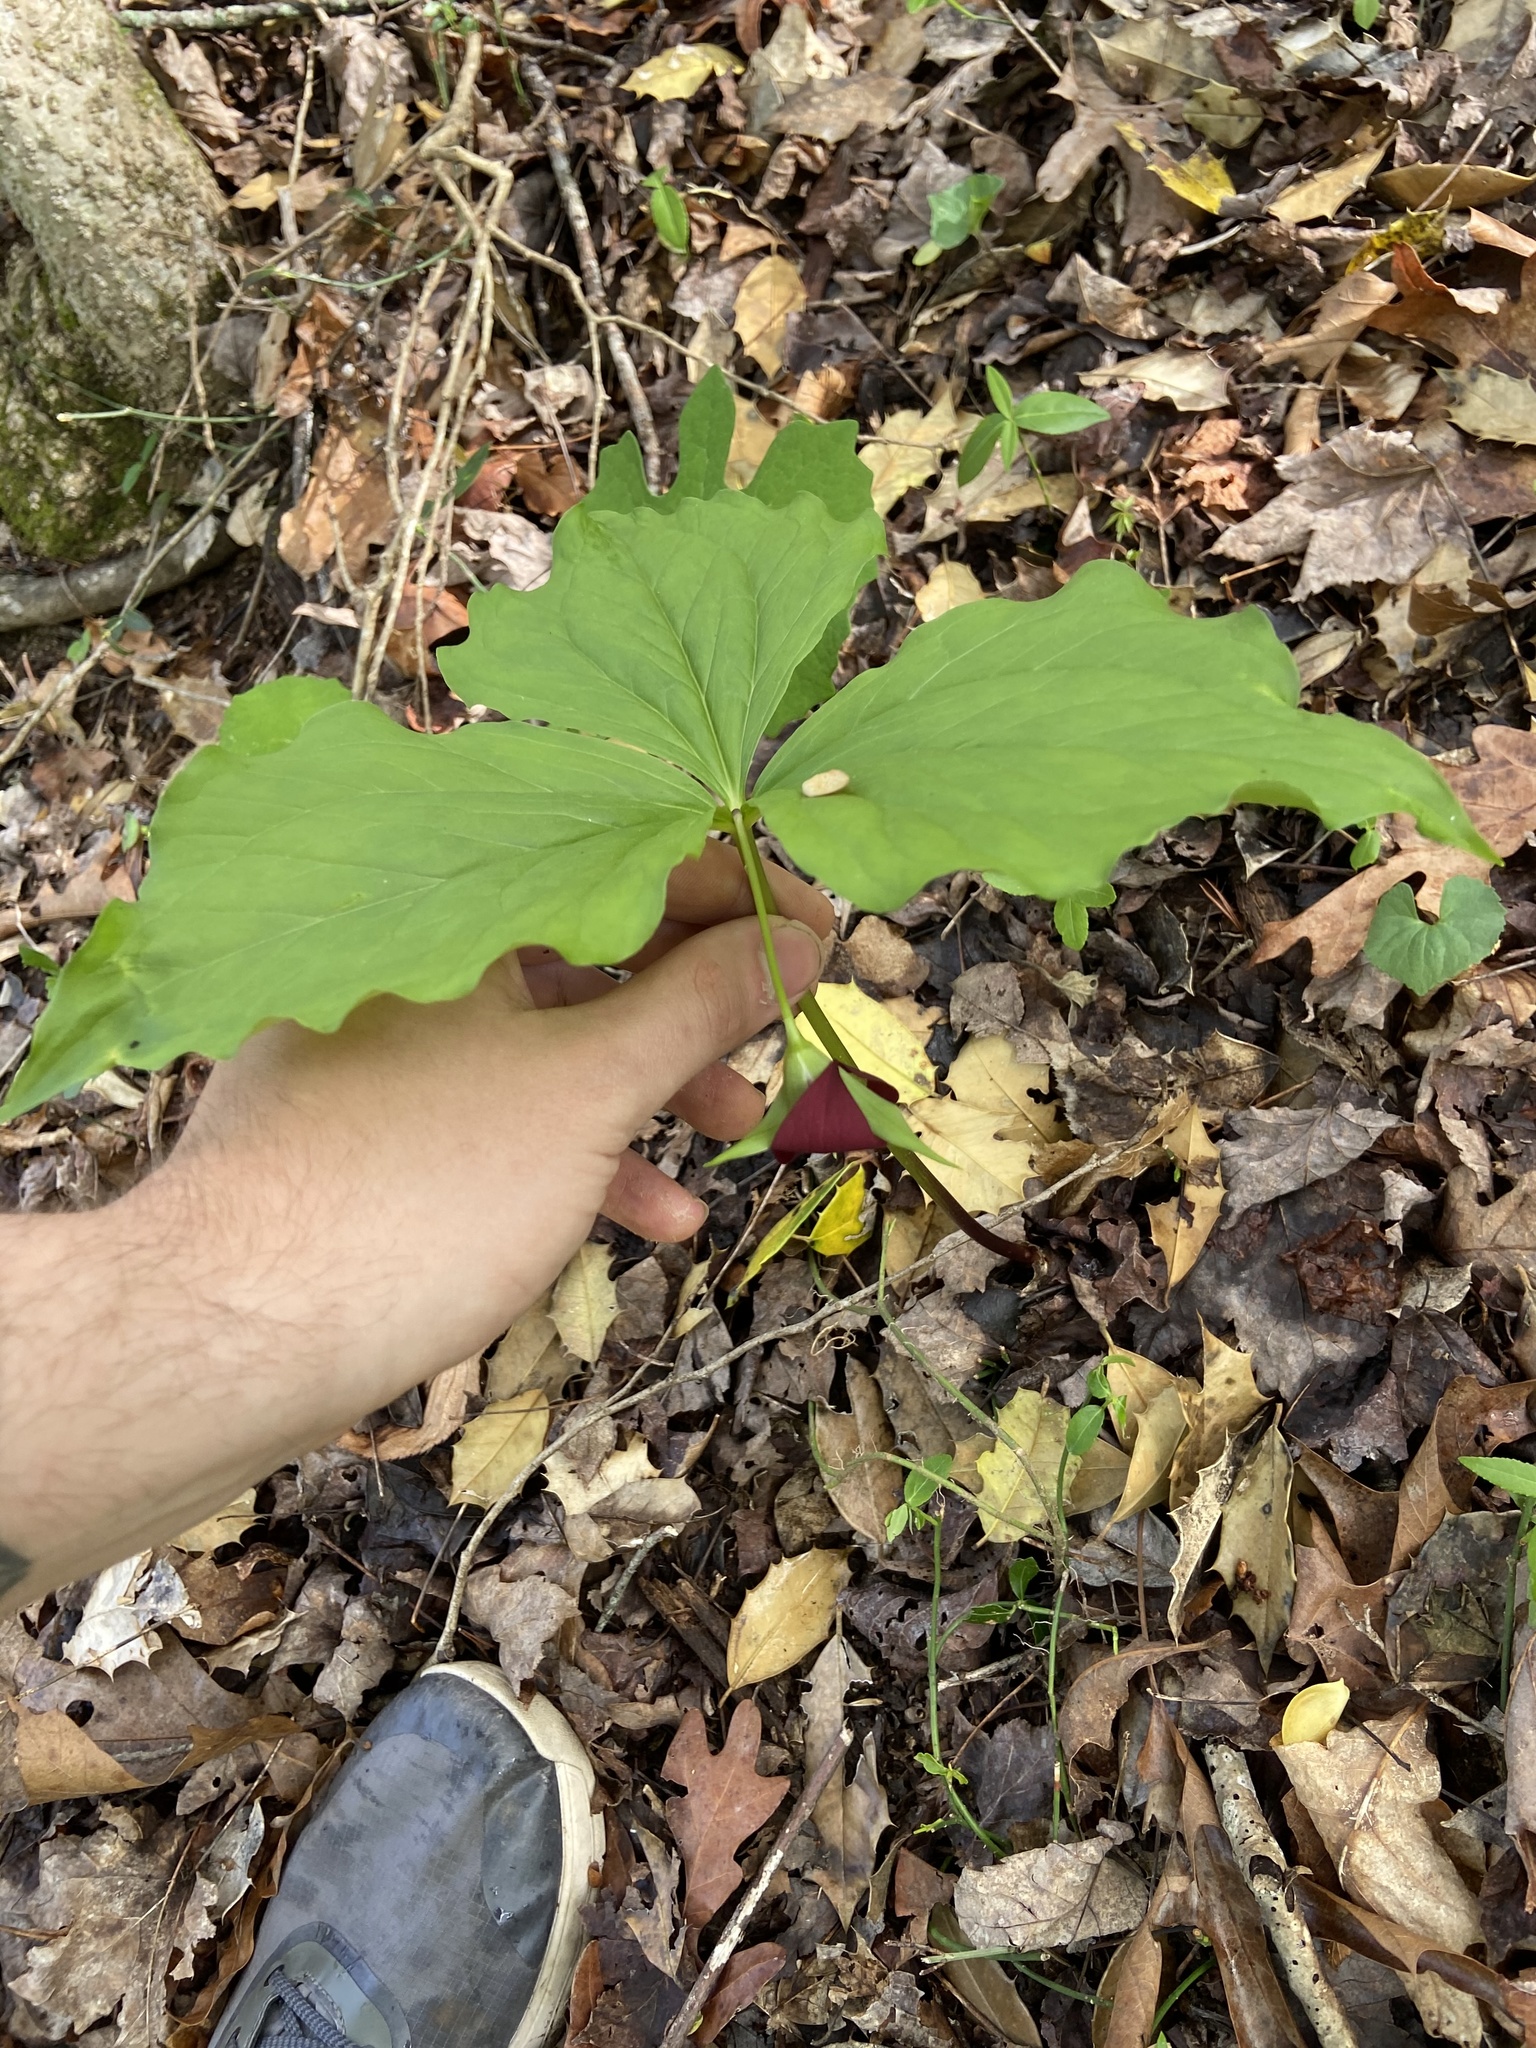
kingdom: Plantae
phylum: Tracheophyta
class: Liliopsida
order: Liliales
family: Melanthiaceae
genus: Trillium
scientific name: Trillium vaseyi
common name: Sweet trillium
